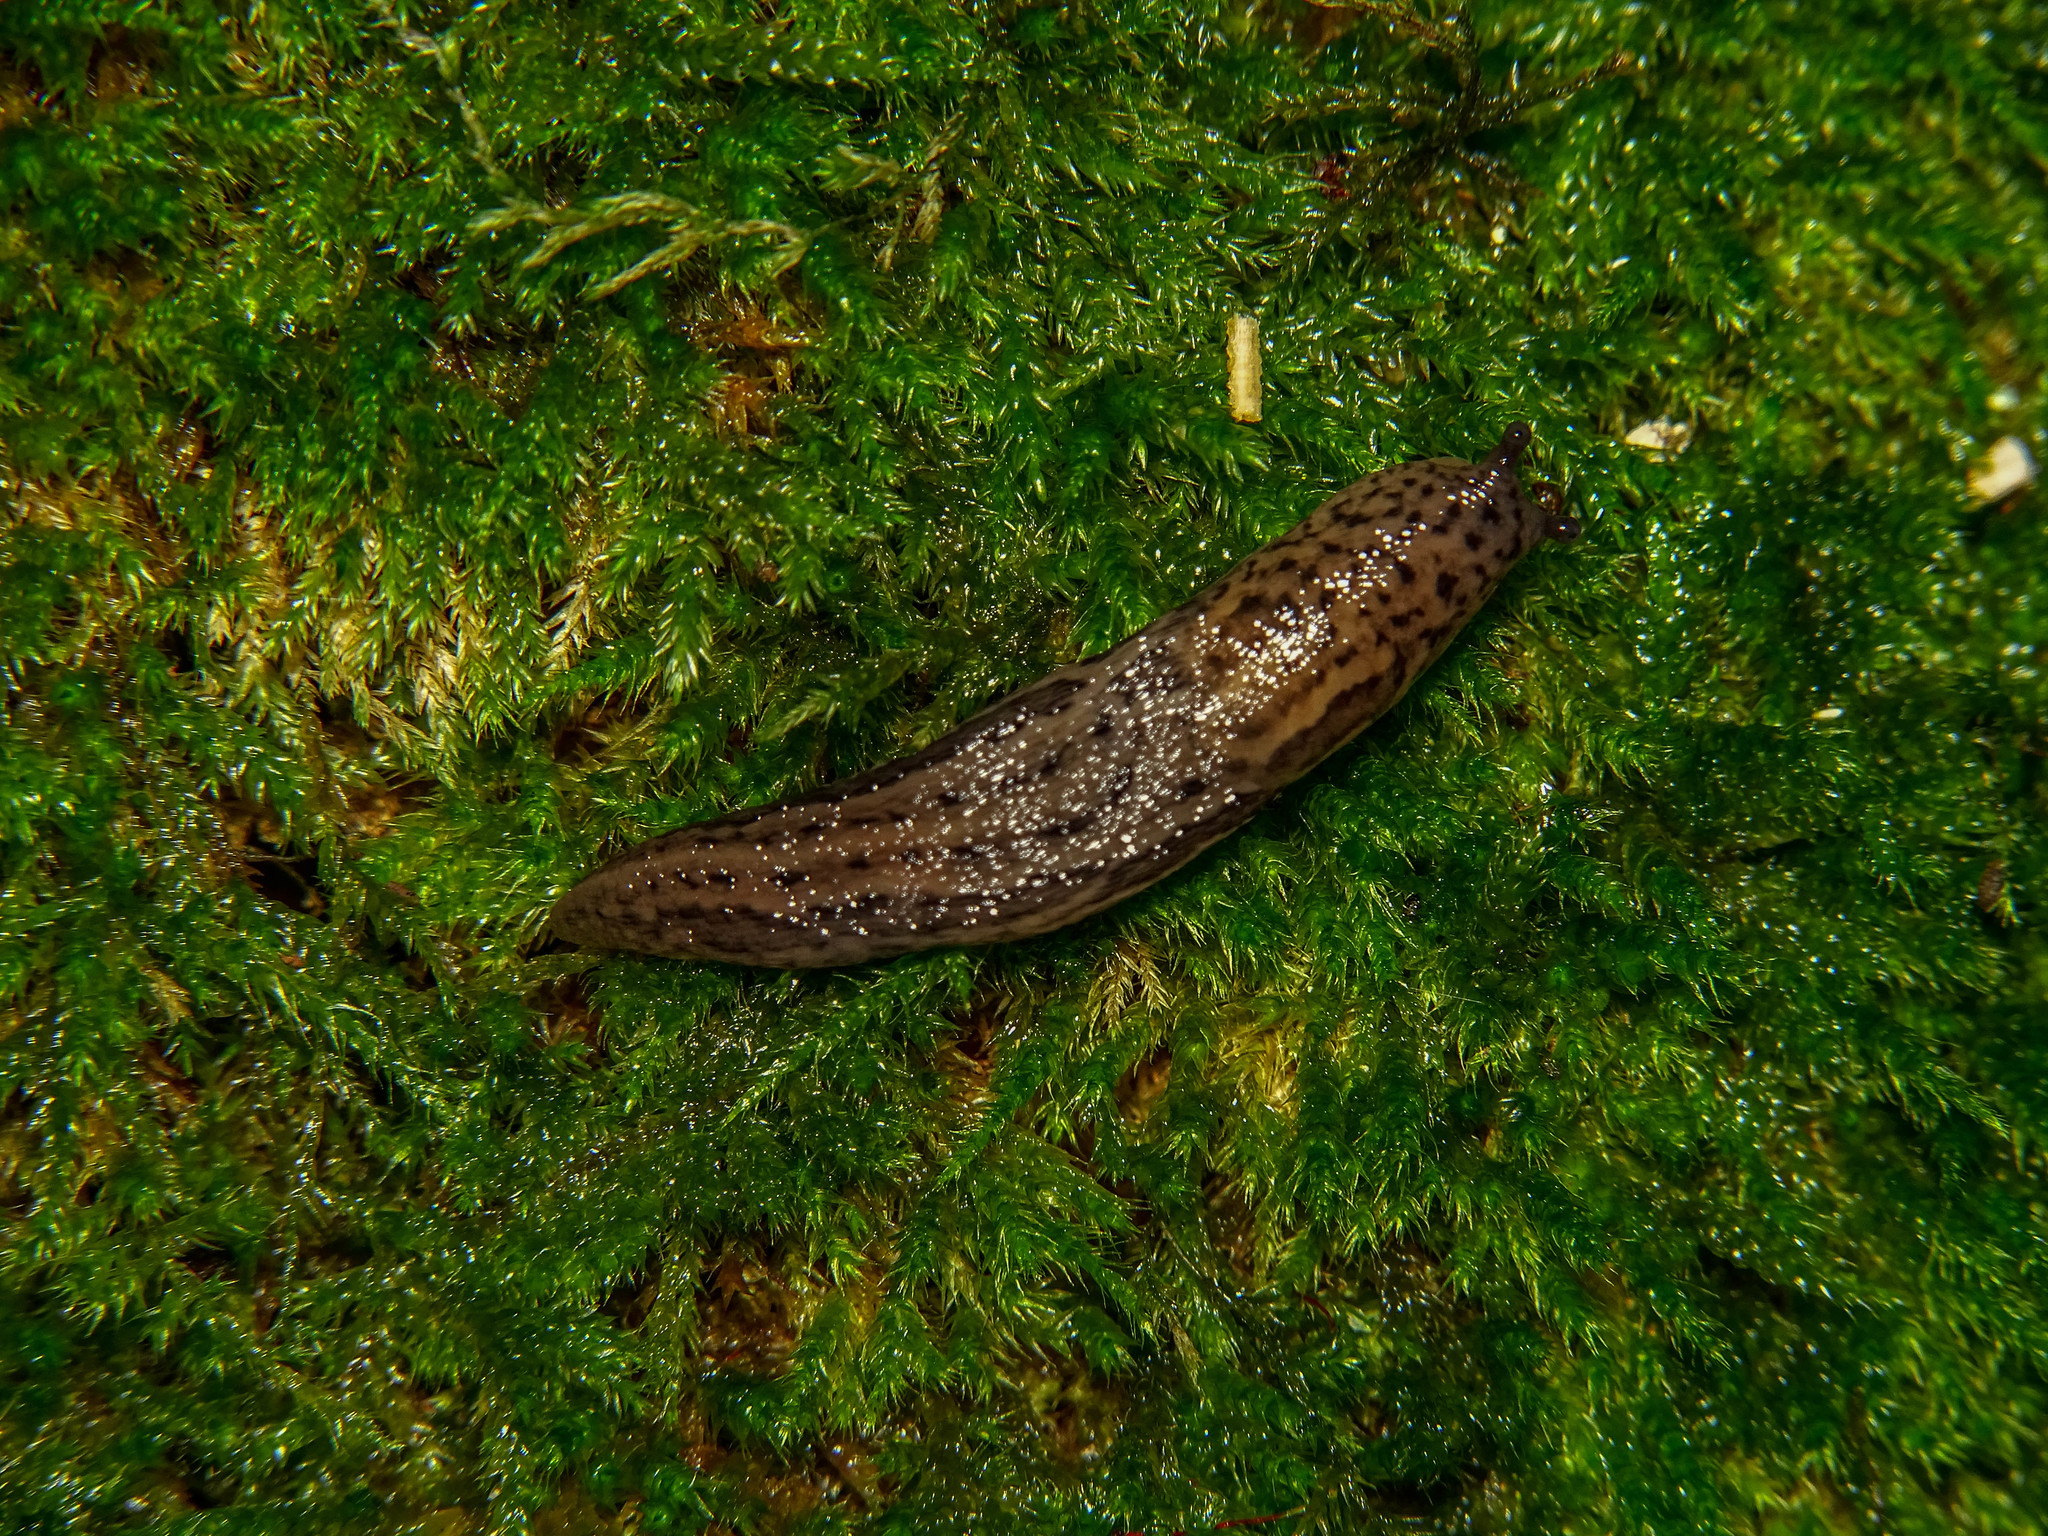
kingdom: Animalia
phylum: Mollusca
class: Gastropoda
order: Stylommatophora
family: Limacidae
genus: Limax
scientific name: Limax maximus
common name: Great grey slug
